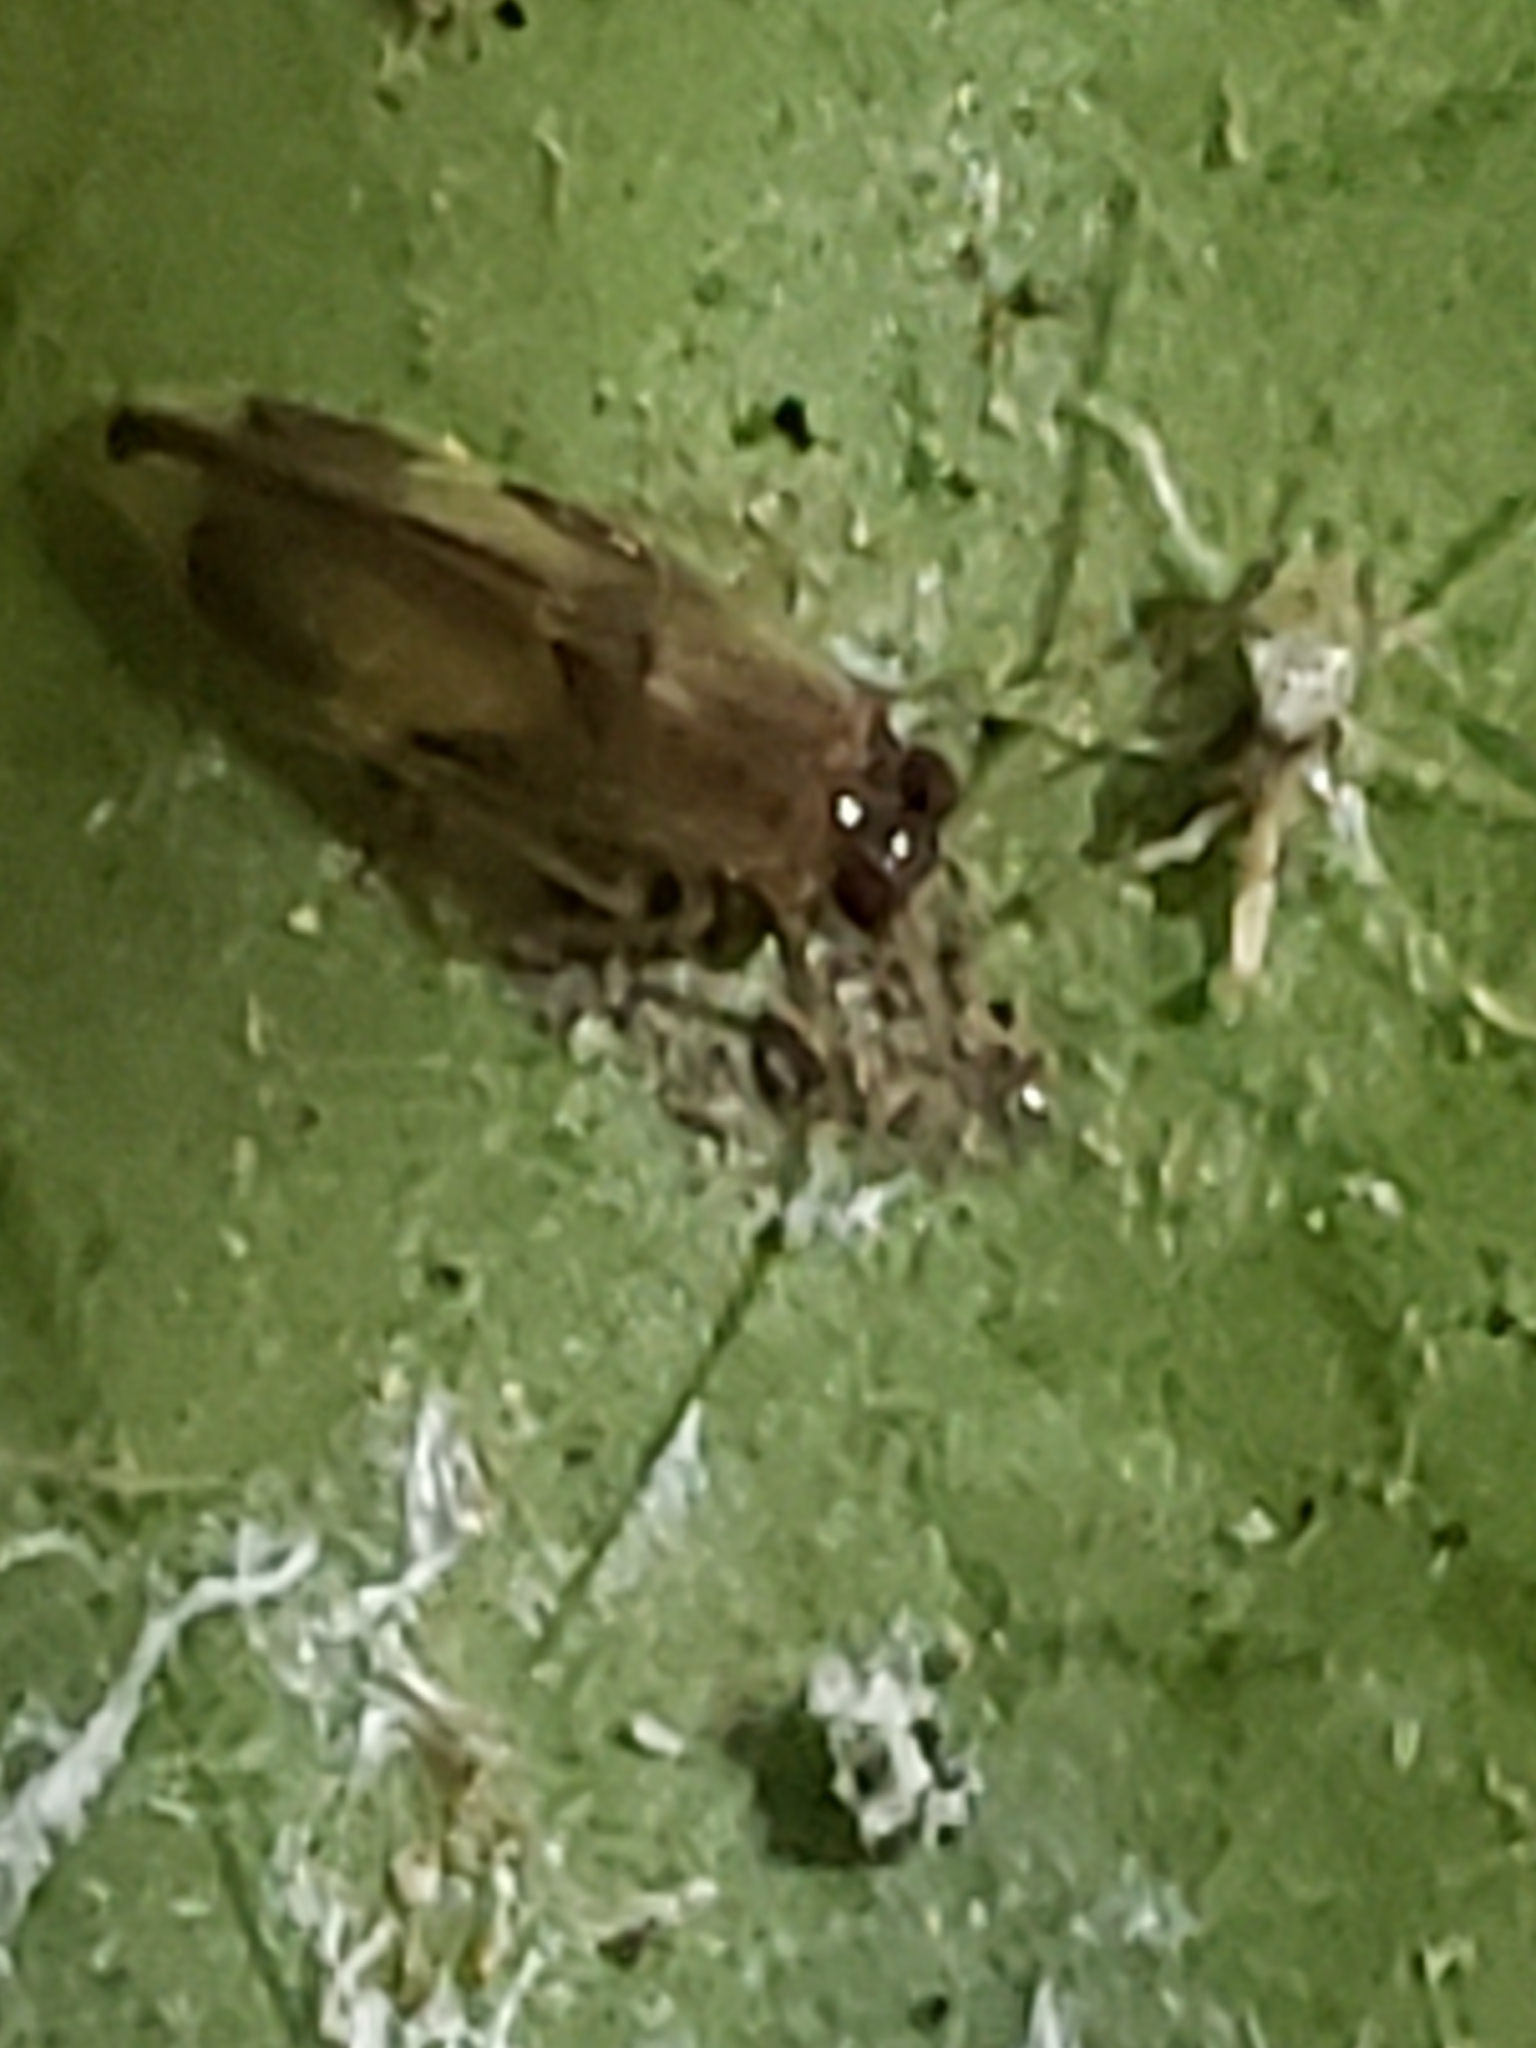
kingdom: Animalia
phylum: Arthropoda
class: Insecta
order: Psocodea
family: Amphipsocidae
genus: Polypsocus
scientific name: Polypsocus corruptus
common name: Corrupt barklouse
